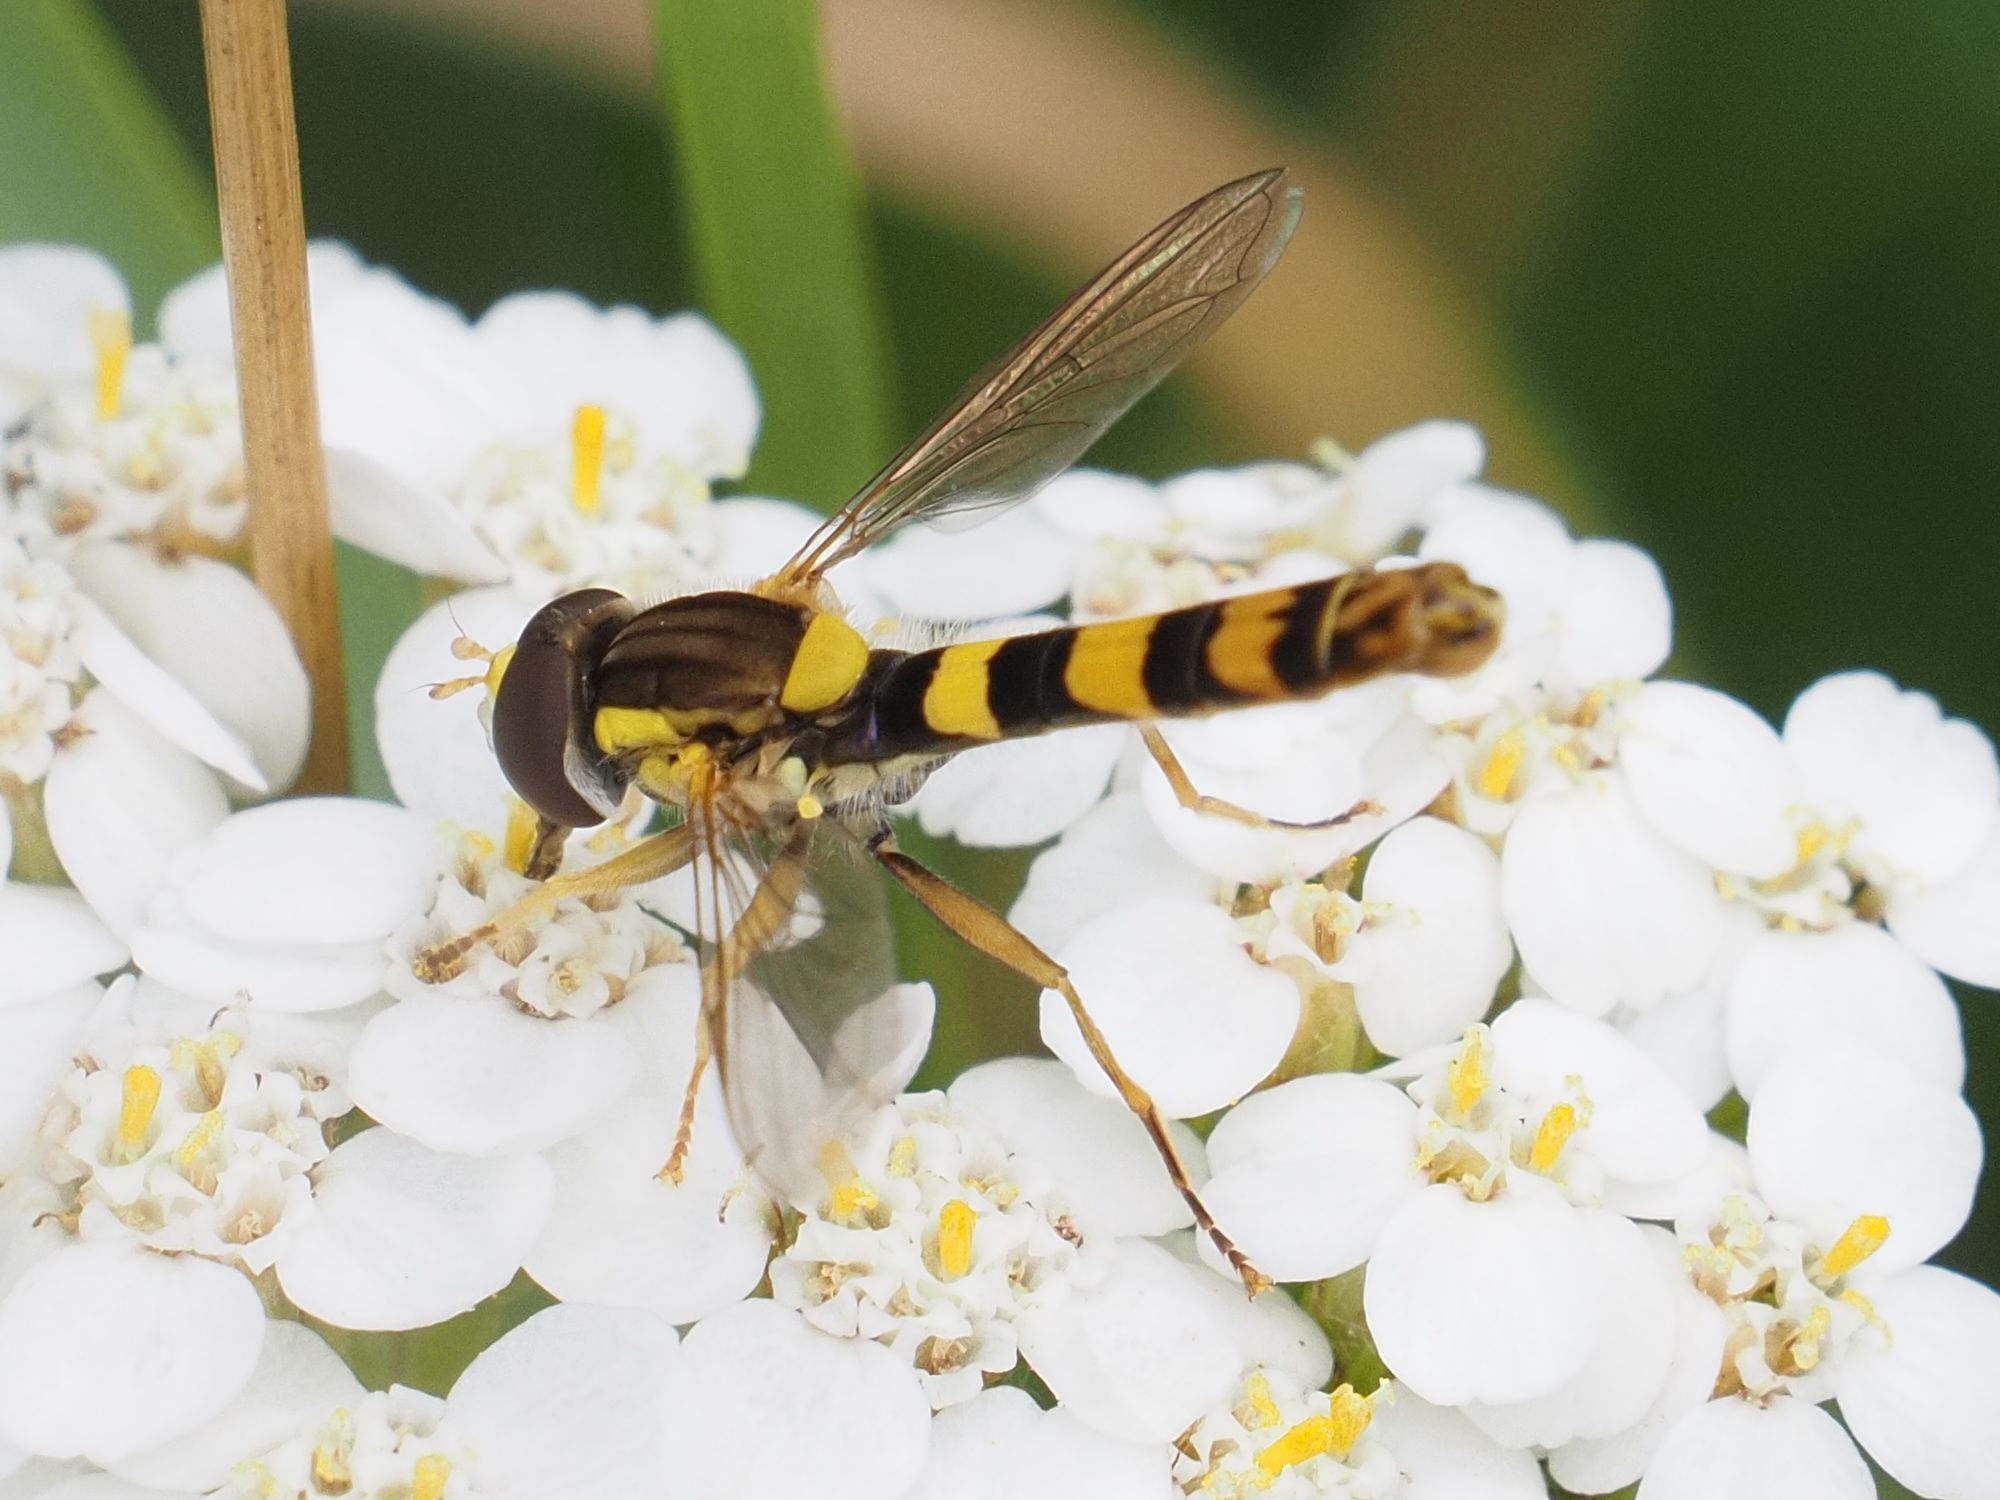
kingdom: Animalia
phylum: Arthropoda
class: Insecta
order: Diptera
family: Syrphidae
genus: Sphaerophoria
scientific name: Sphaerophoria scripta
